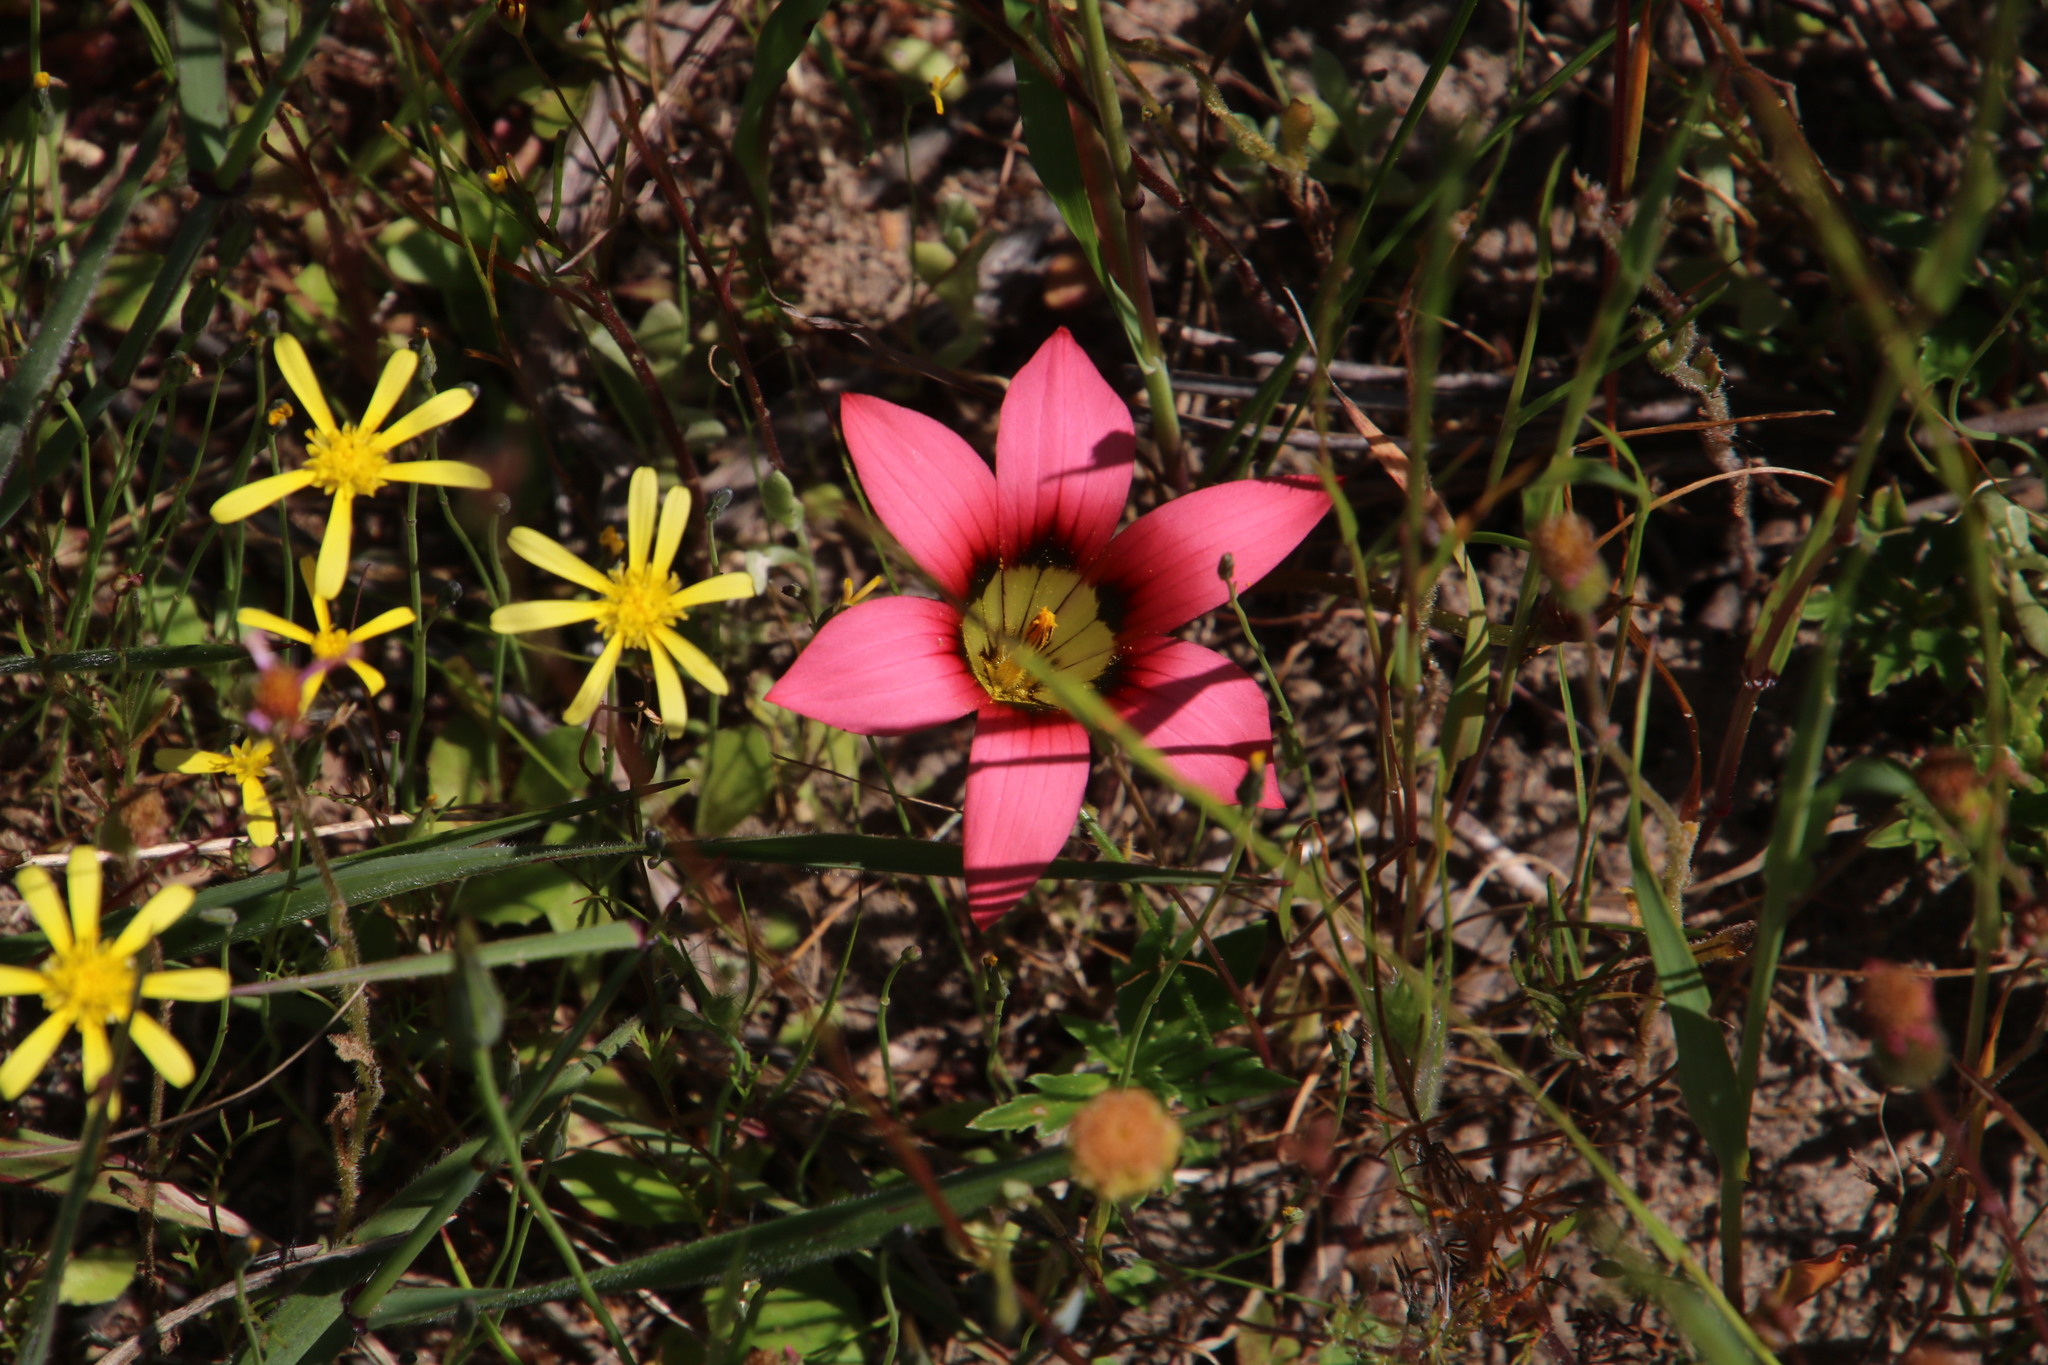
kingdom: Plantae
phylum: Tracheophyta
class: Liliopsida
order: Asparagales
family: Iridaceae
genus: Romulea
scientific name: Romulea hirsuta
